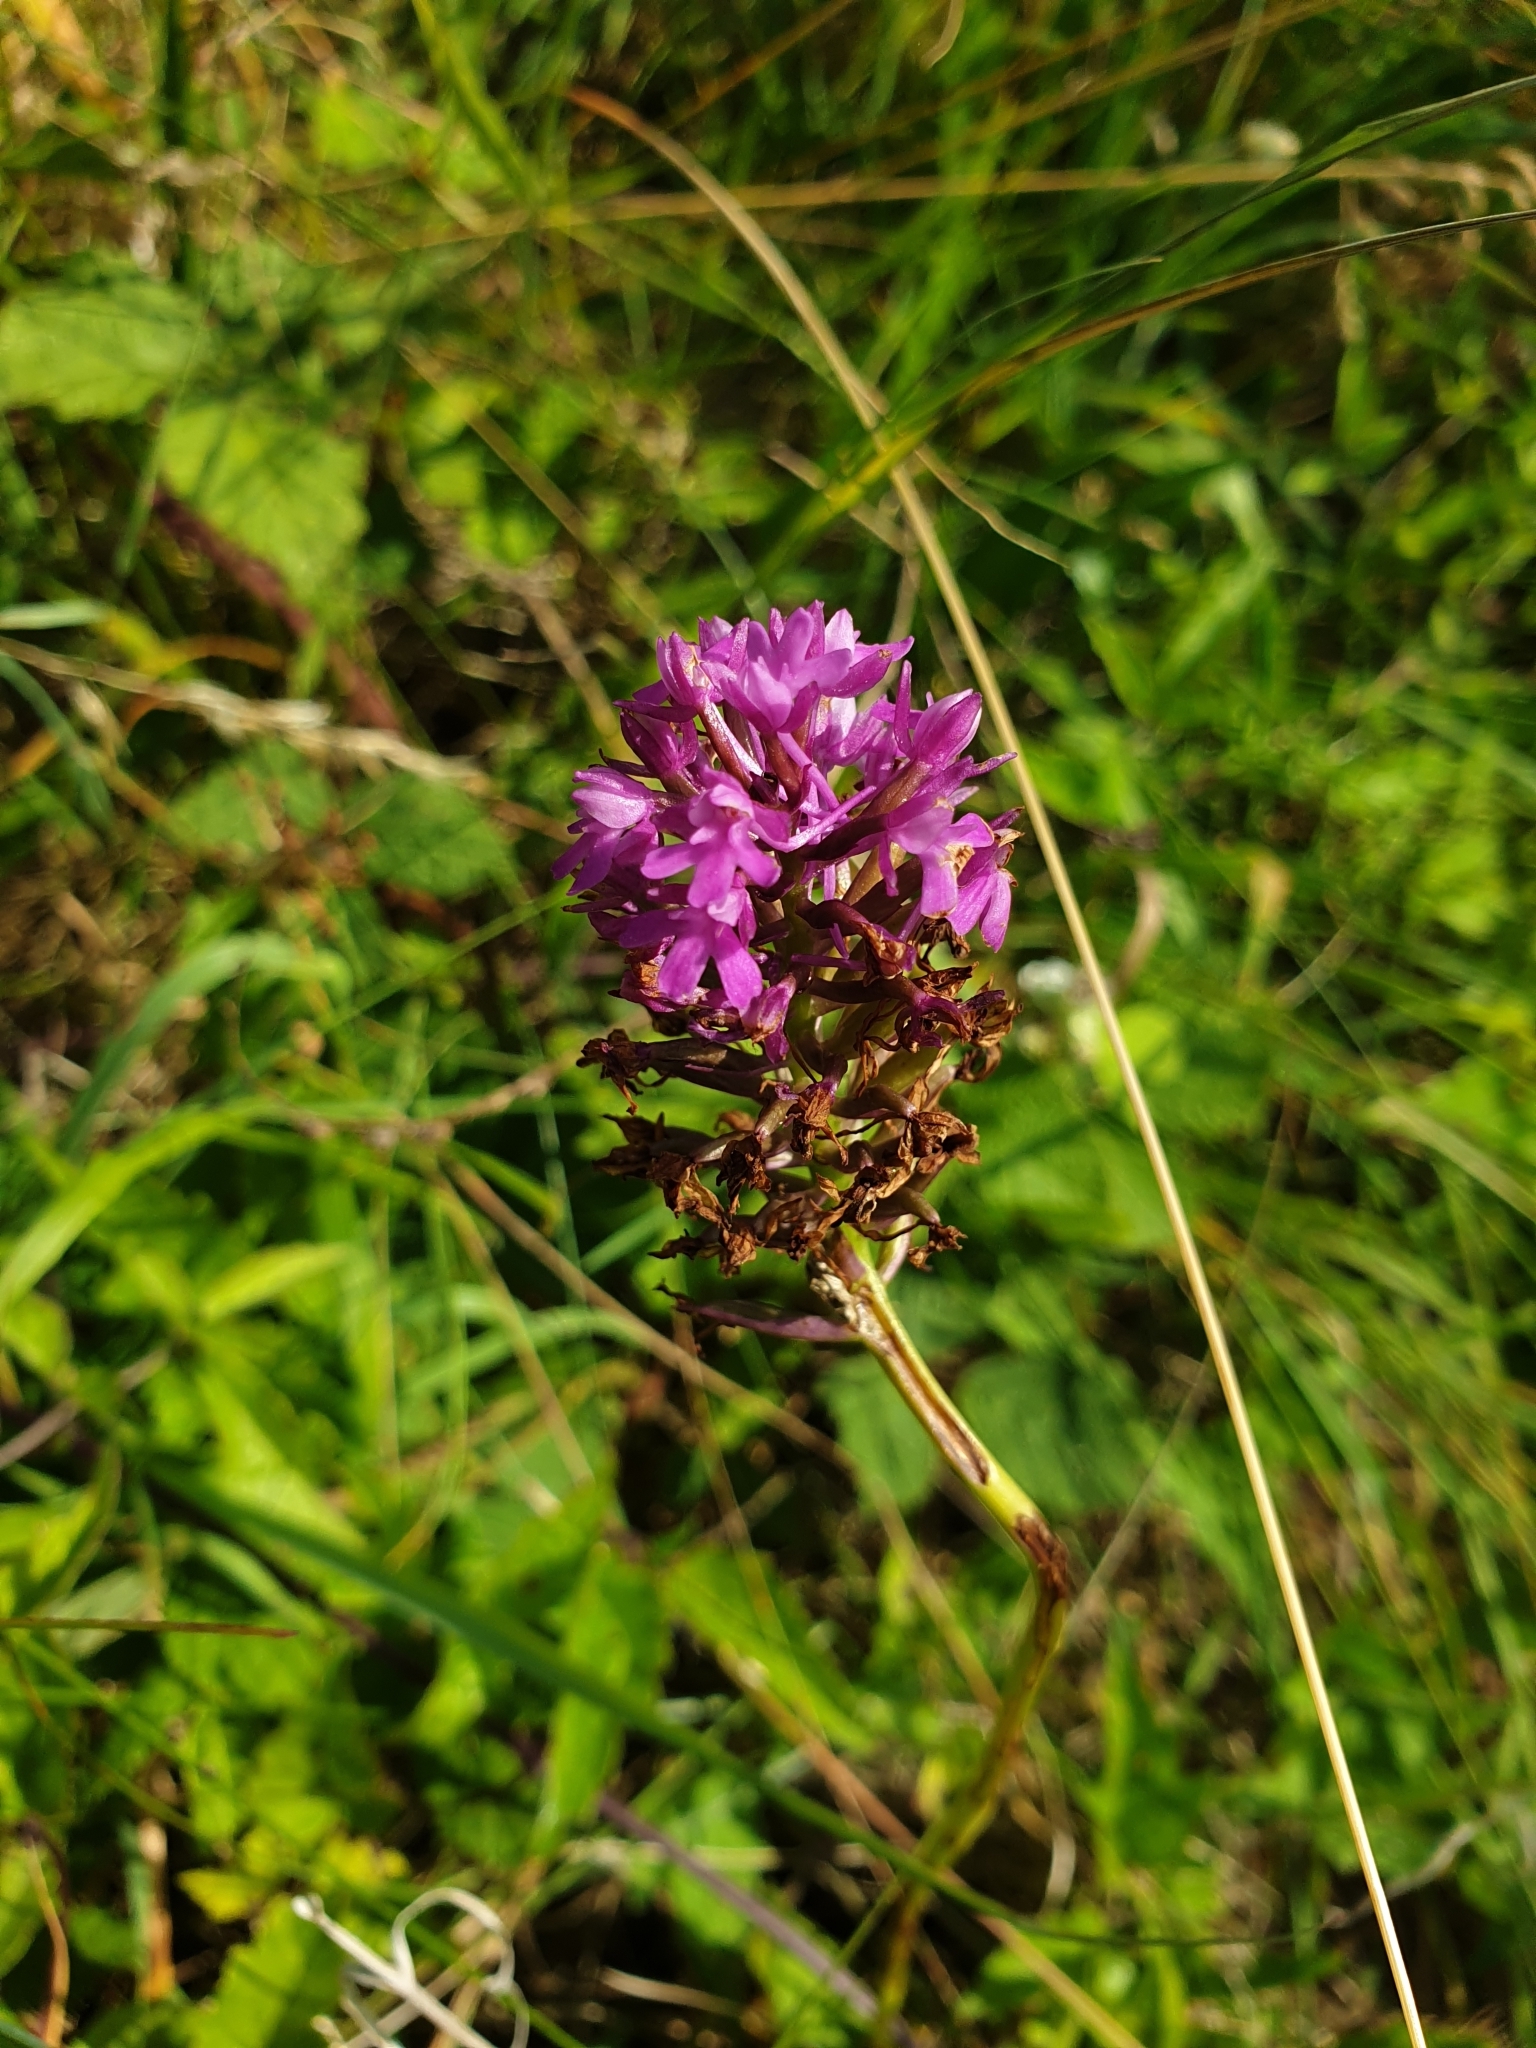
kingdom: Plantae
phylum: Tracheophyta
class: Liliopsida
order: Asparagales
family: Orchidaceae
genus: Anacamptis
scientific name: Anacamptis pyramidalis
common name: Pyramidal orchid
